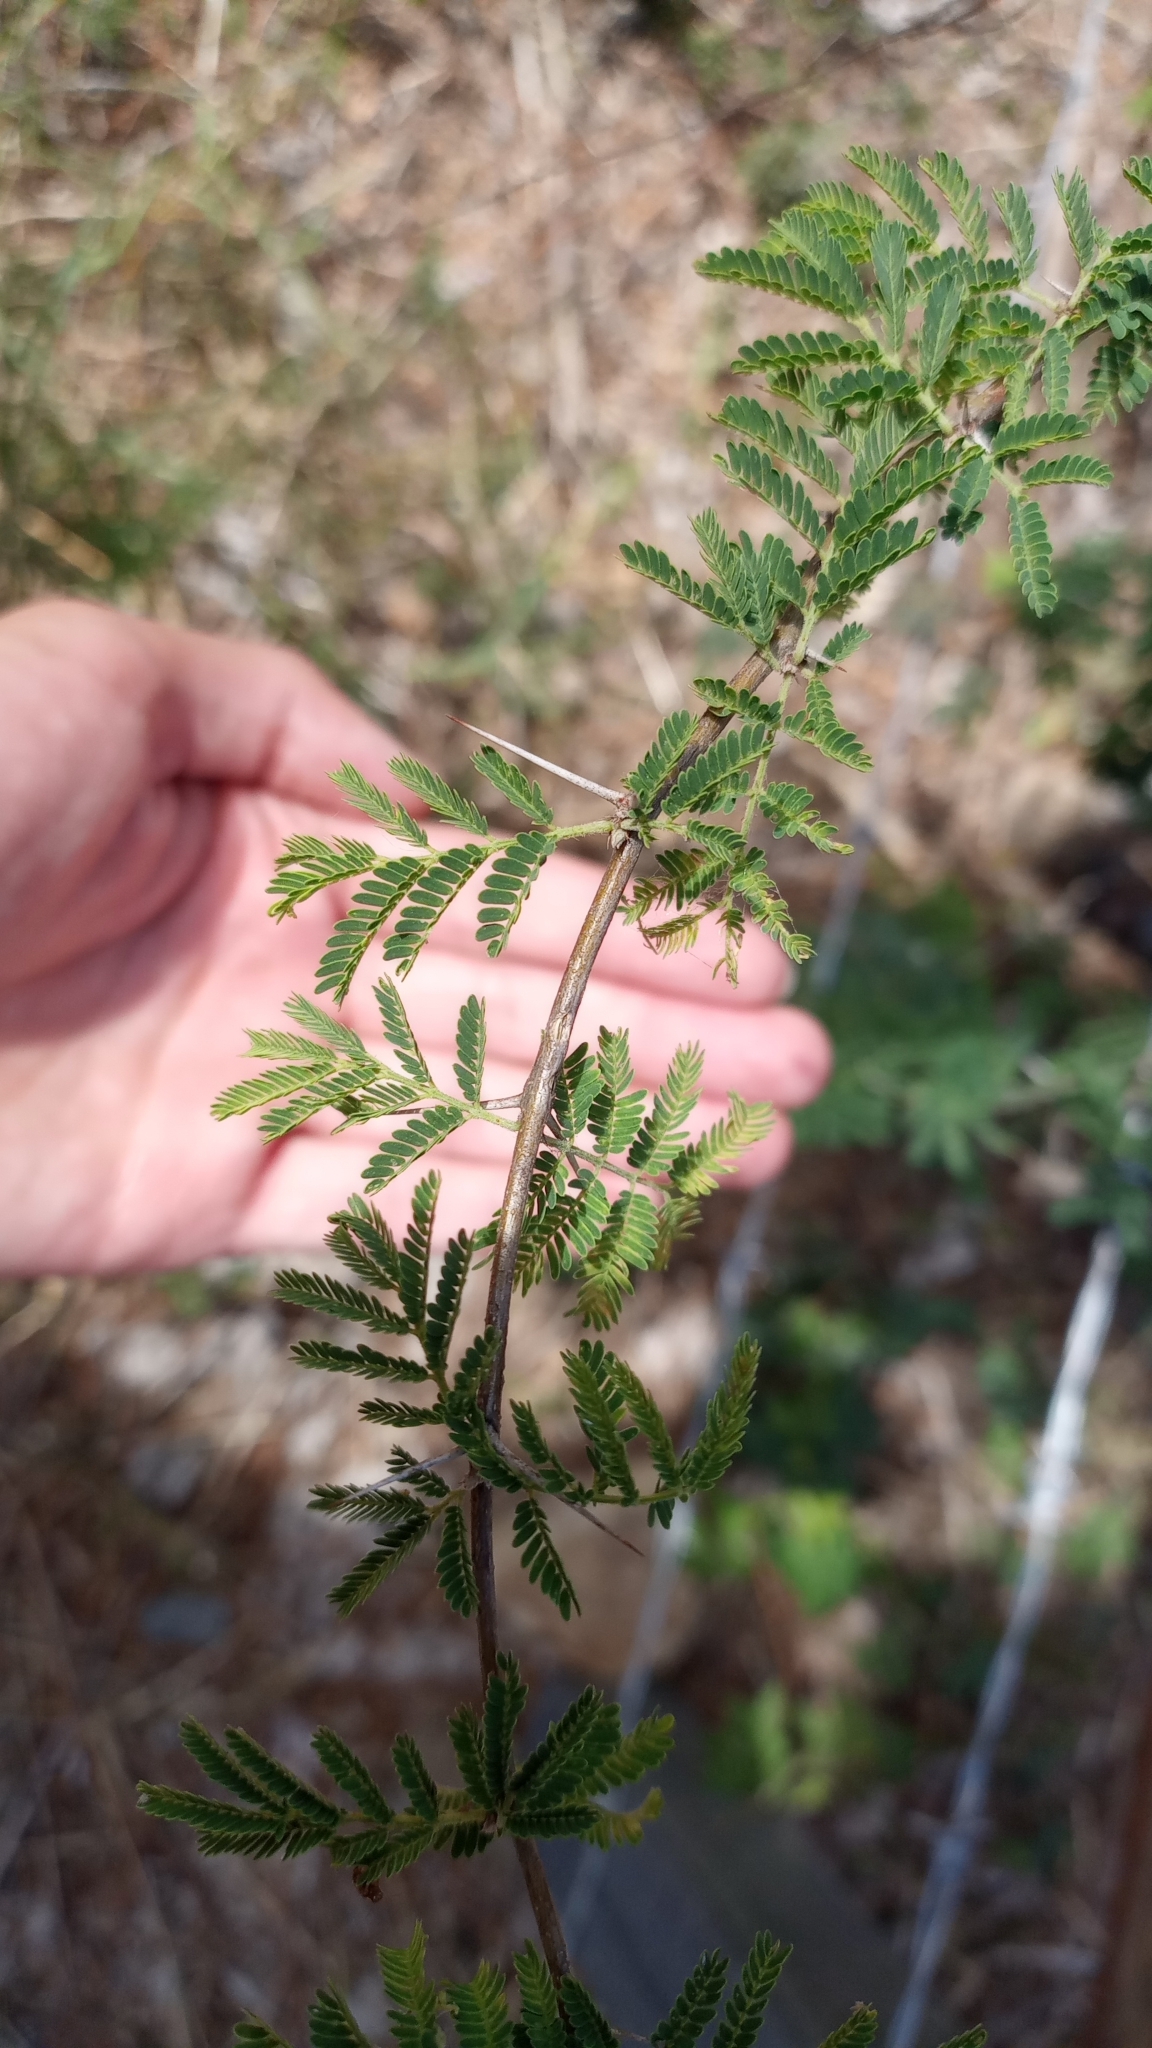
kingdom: Plantae
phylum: Tracheophyta
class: Magnoliopsida
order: Fabales
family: Fabaceae
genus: Vachellia
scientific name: Vachellia farnesiana
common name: Sweet acacia
